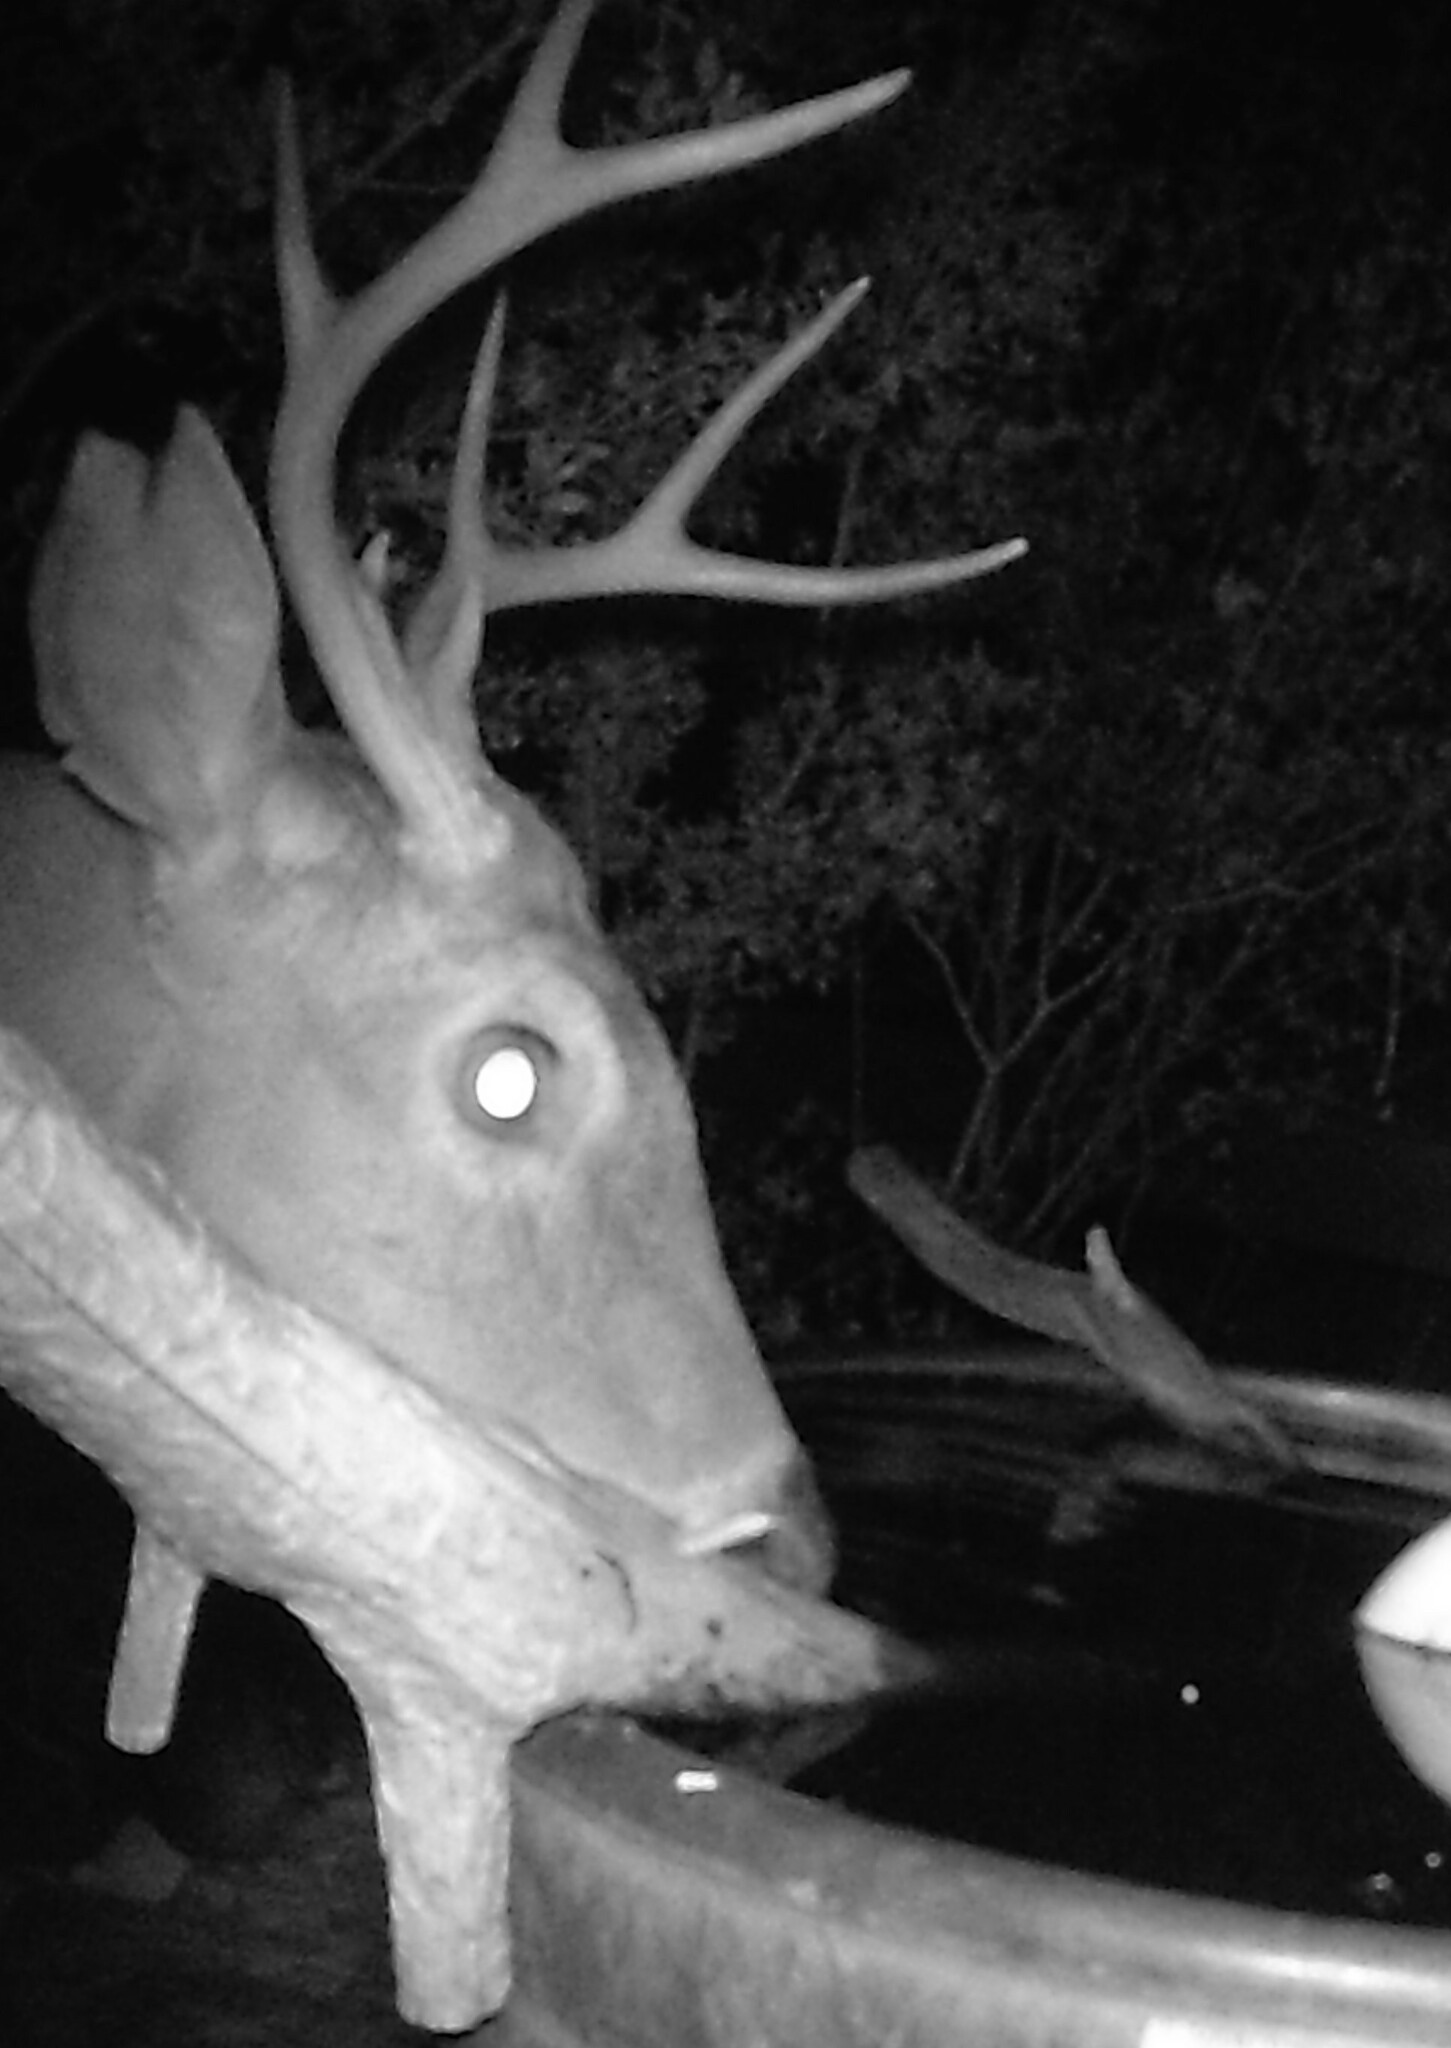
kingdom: Animalia
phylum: Chordata
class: Mammalia
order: Artiodactyla
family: Cervidae
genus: Odocoileus
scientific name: Odocoileus virginianus
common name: White-tailed deer
